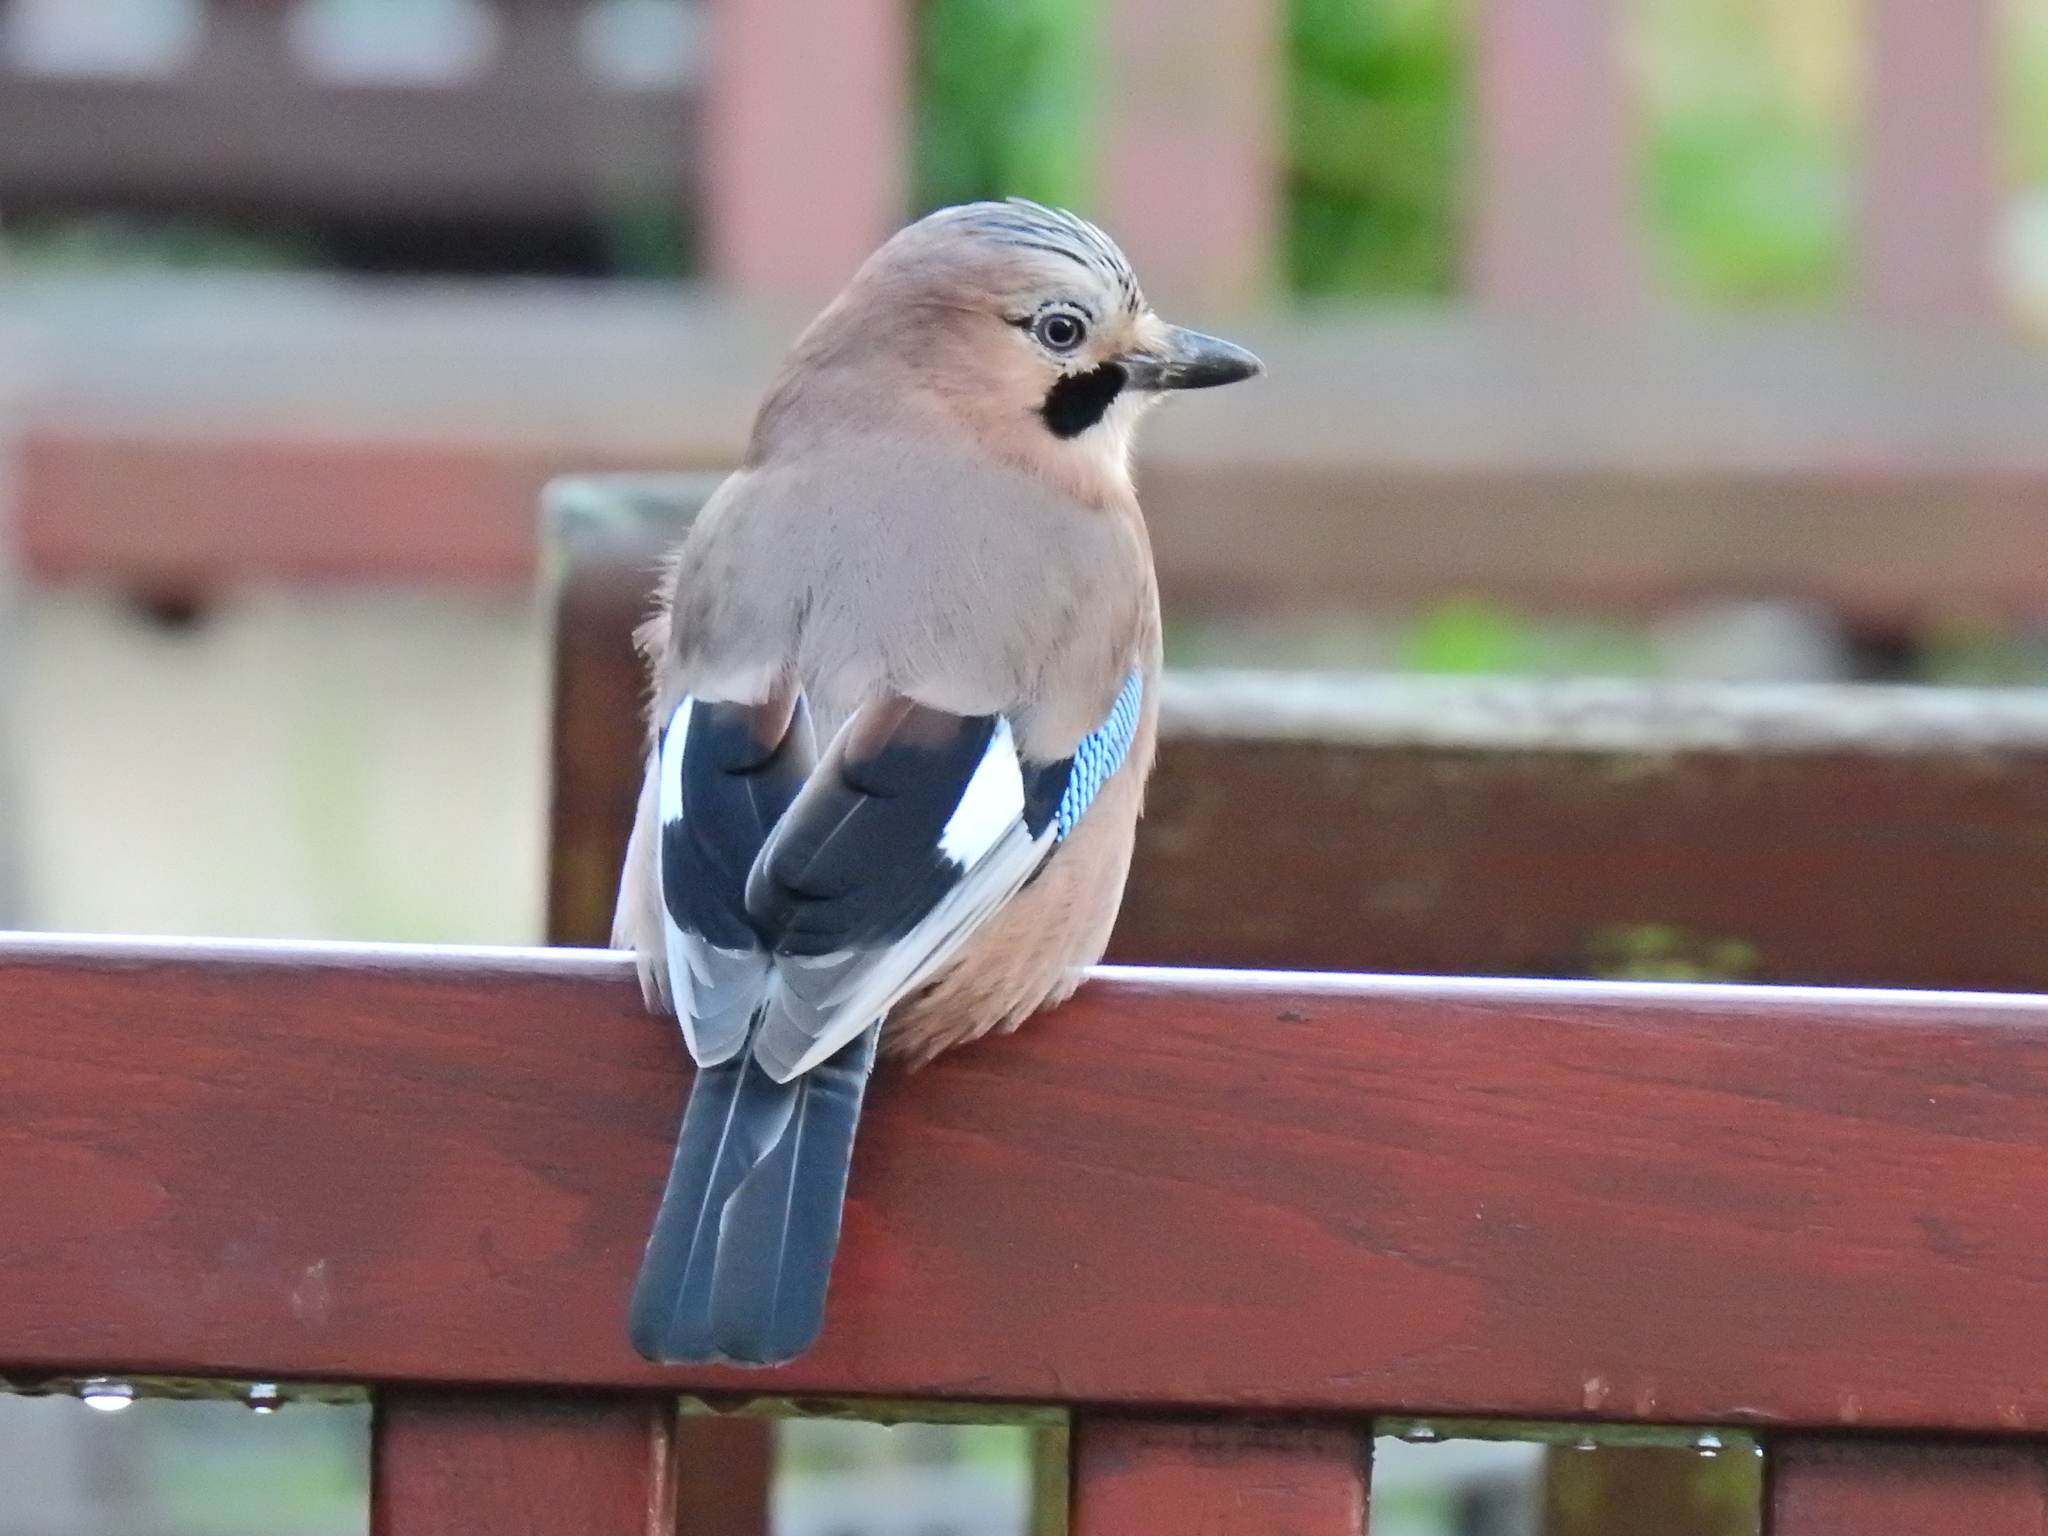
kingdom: Animalia
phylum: Chordata
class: Aves
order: Passeriformes
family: Corvidae
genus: Garrulus
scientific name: Garrulus glandarius
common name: Eurasian jay
